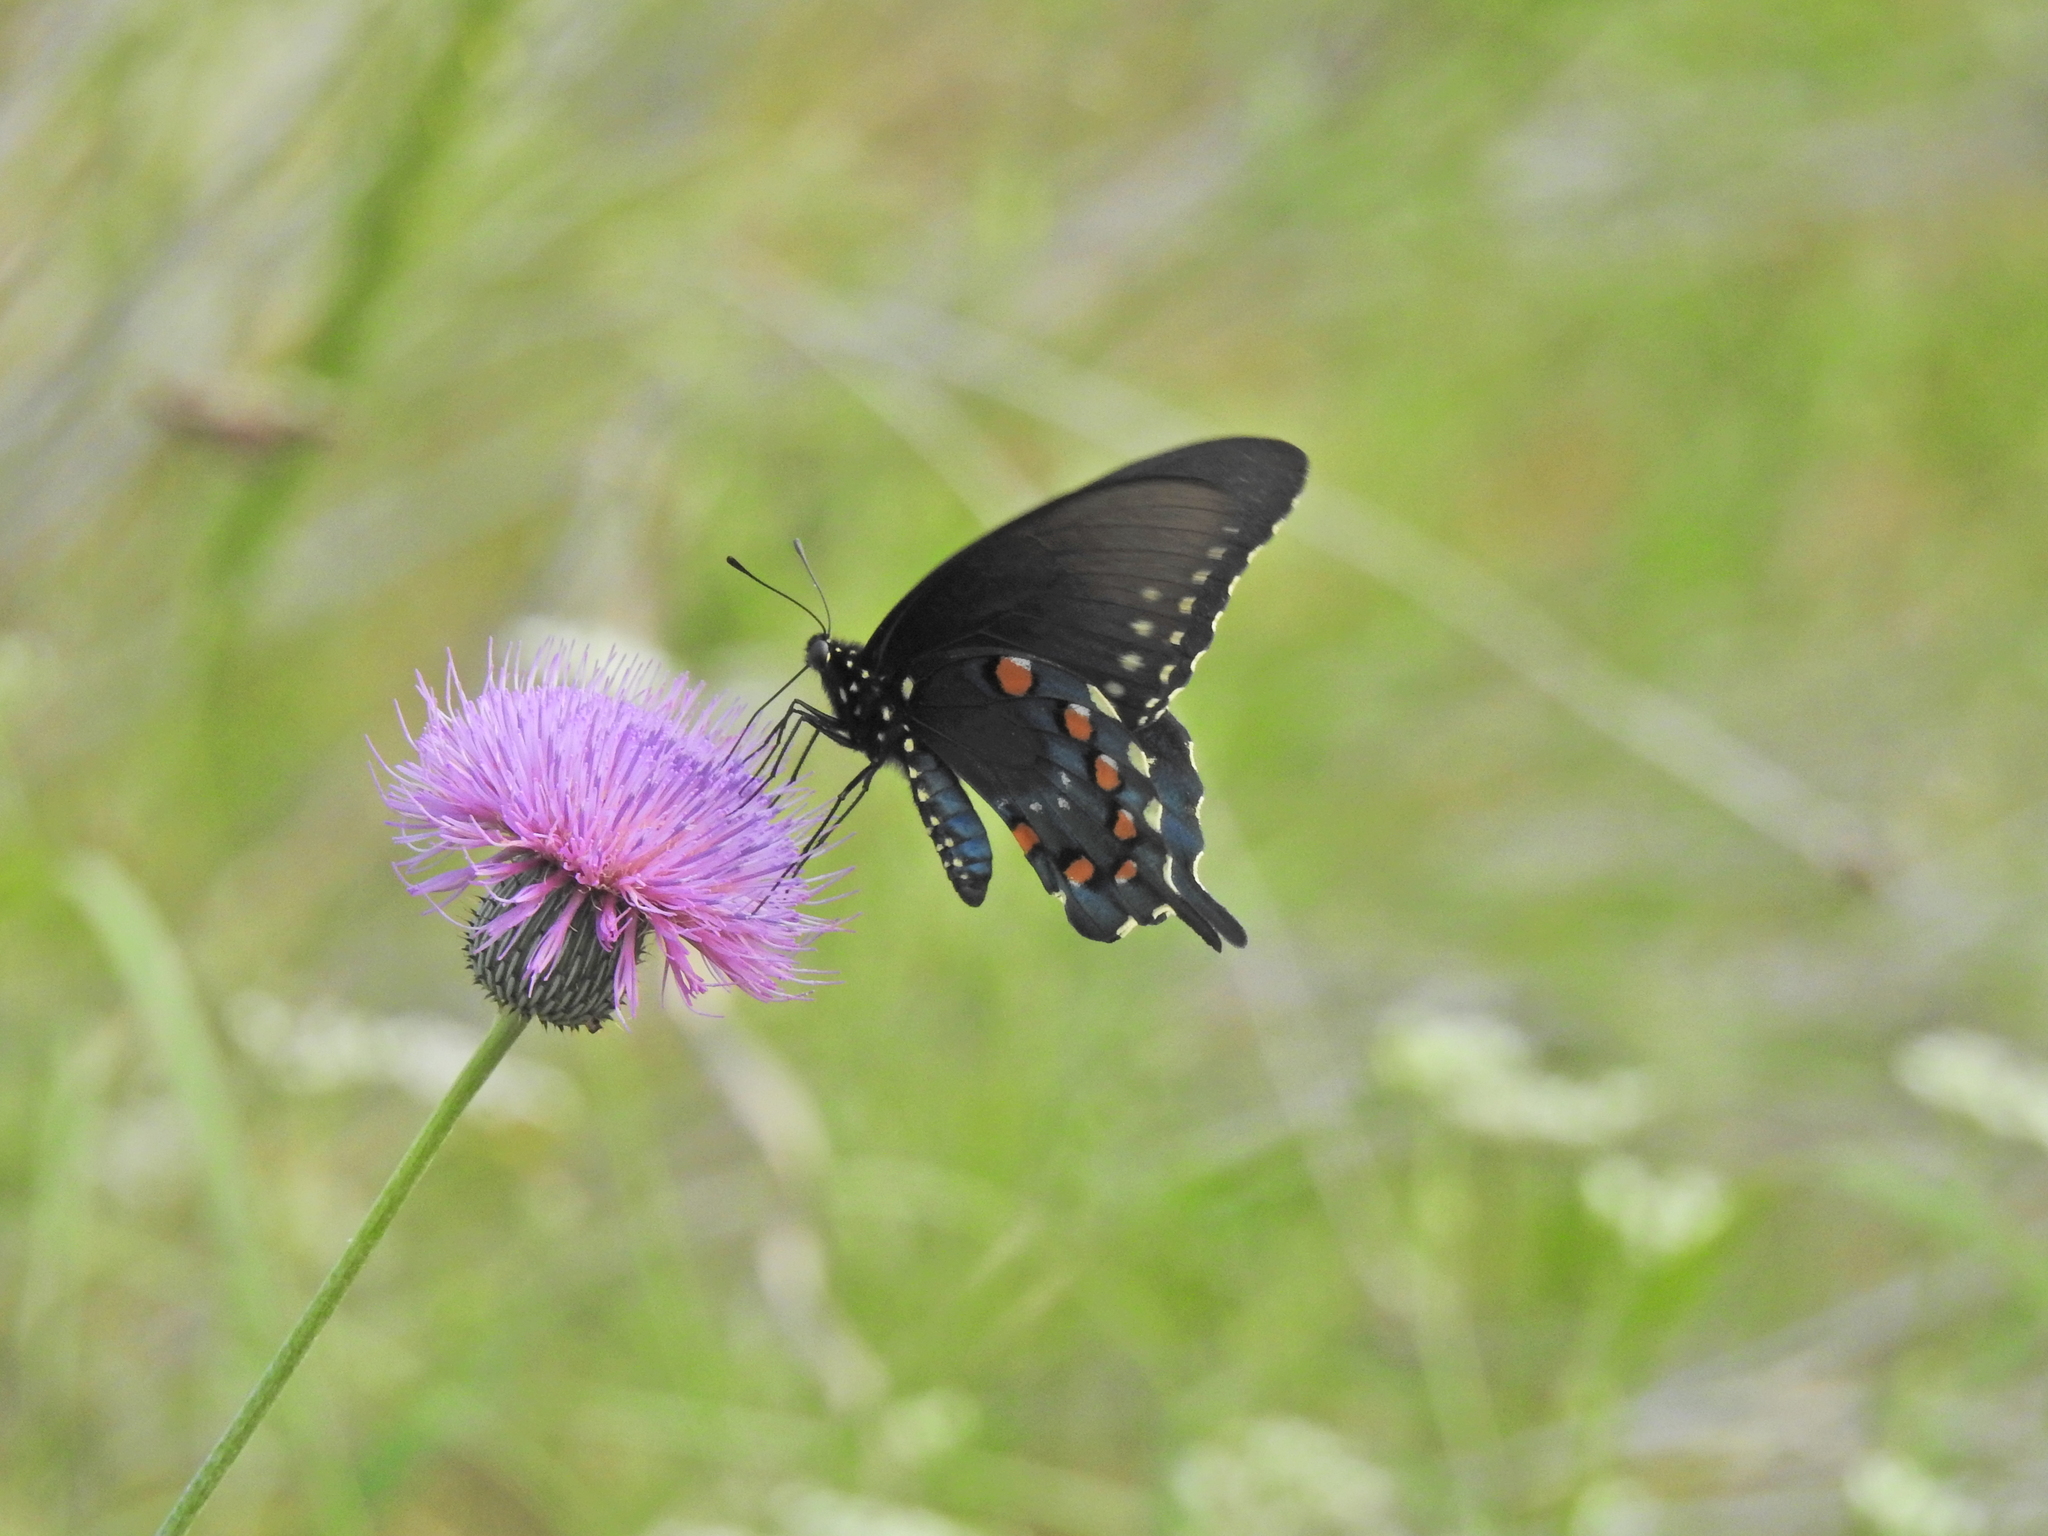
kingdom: Animalia
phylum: Arthropoda
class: Insecta
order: Lepidoptera
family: Papilionidae
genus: Battus
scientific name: Battus philenor
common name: Pipevine swallowtail
